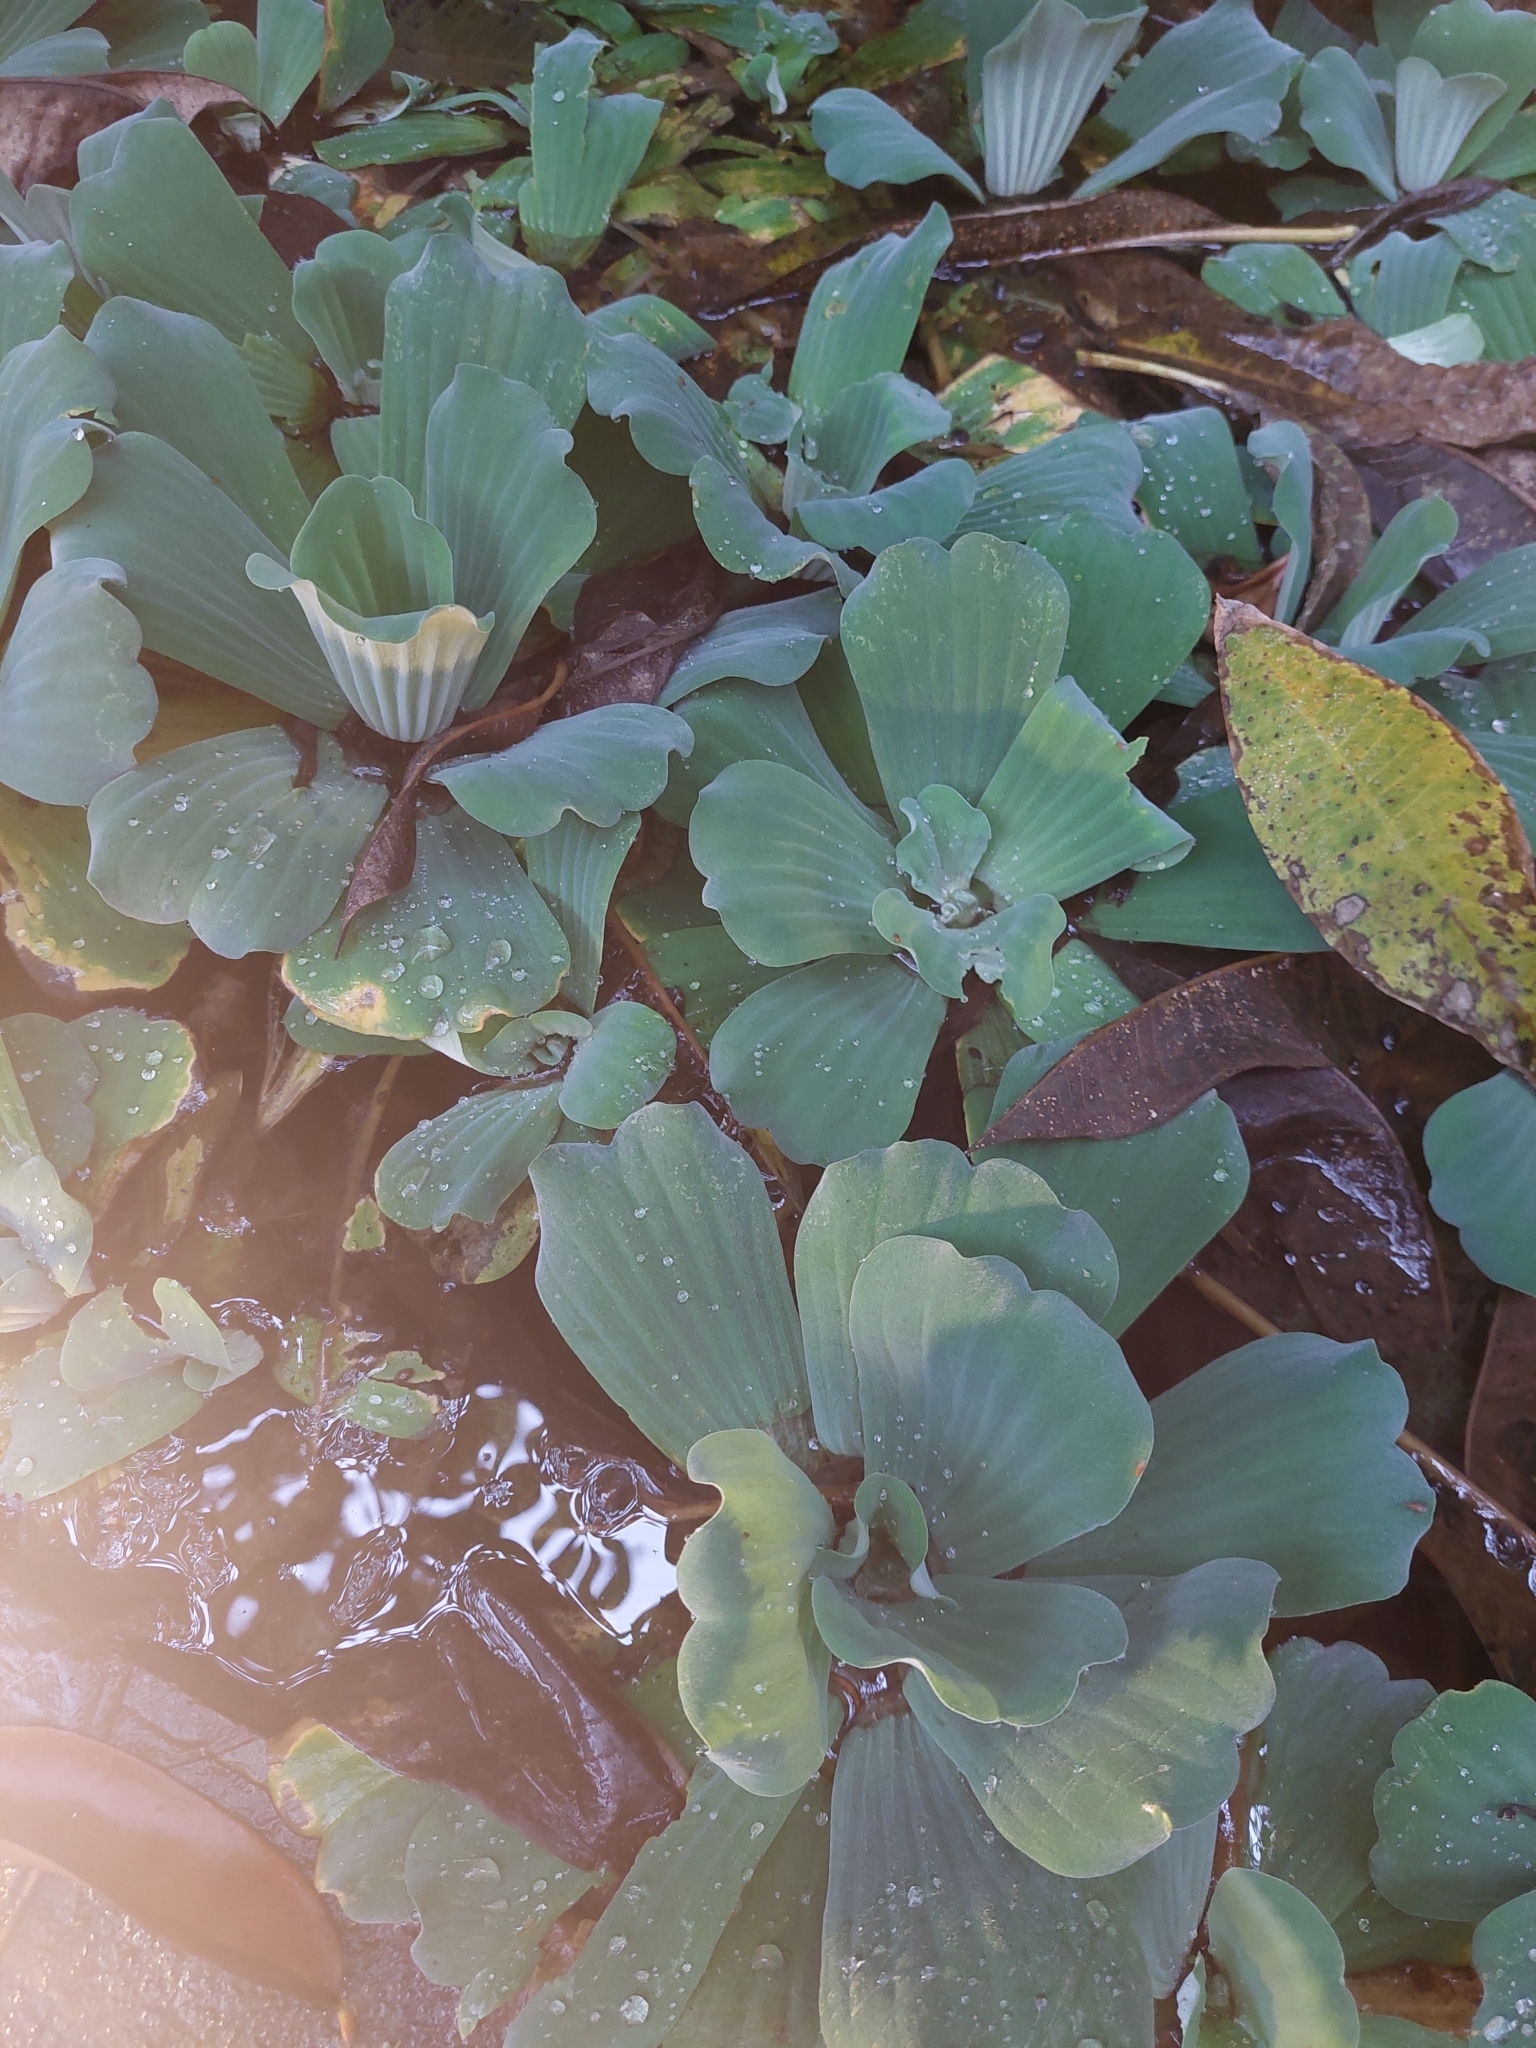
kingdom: Plantae
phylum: Tracheophyta
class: Liliopsida
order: Alismatales
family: Araceae
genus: Pistia
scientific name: Pistia stratiotes
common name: Water lettuce
